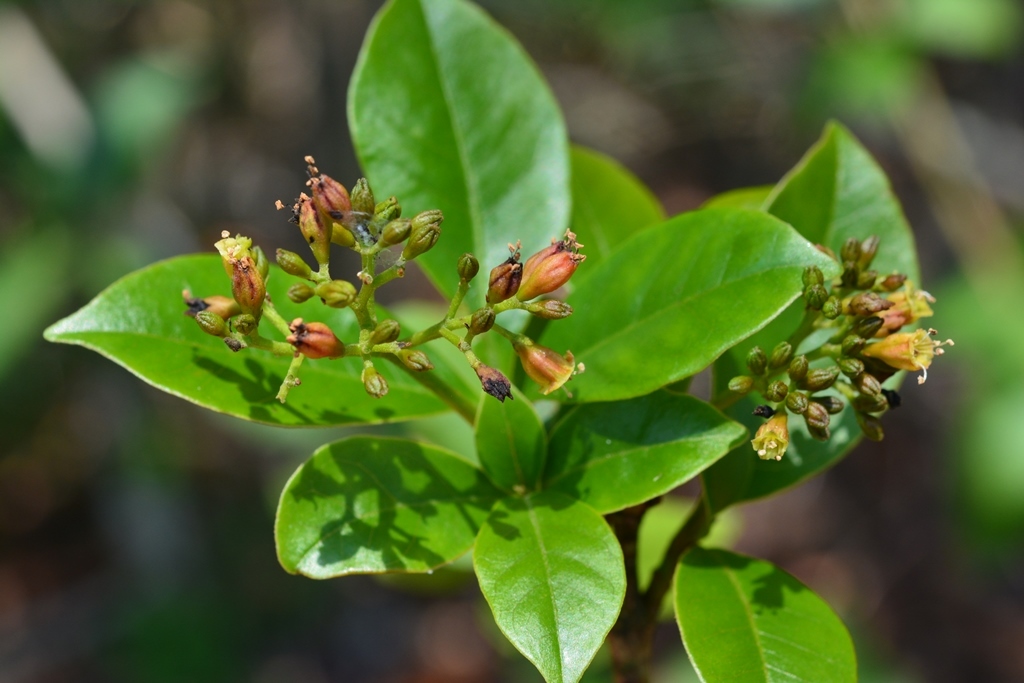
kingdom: Plantae
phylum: Tracheophyta
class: Magnoliopsida
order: Caryophyllales
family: Nyctaginaceae
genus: Neea
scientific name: Neea tenuis
